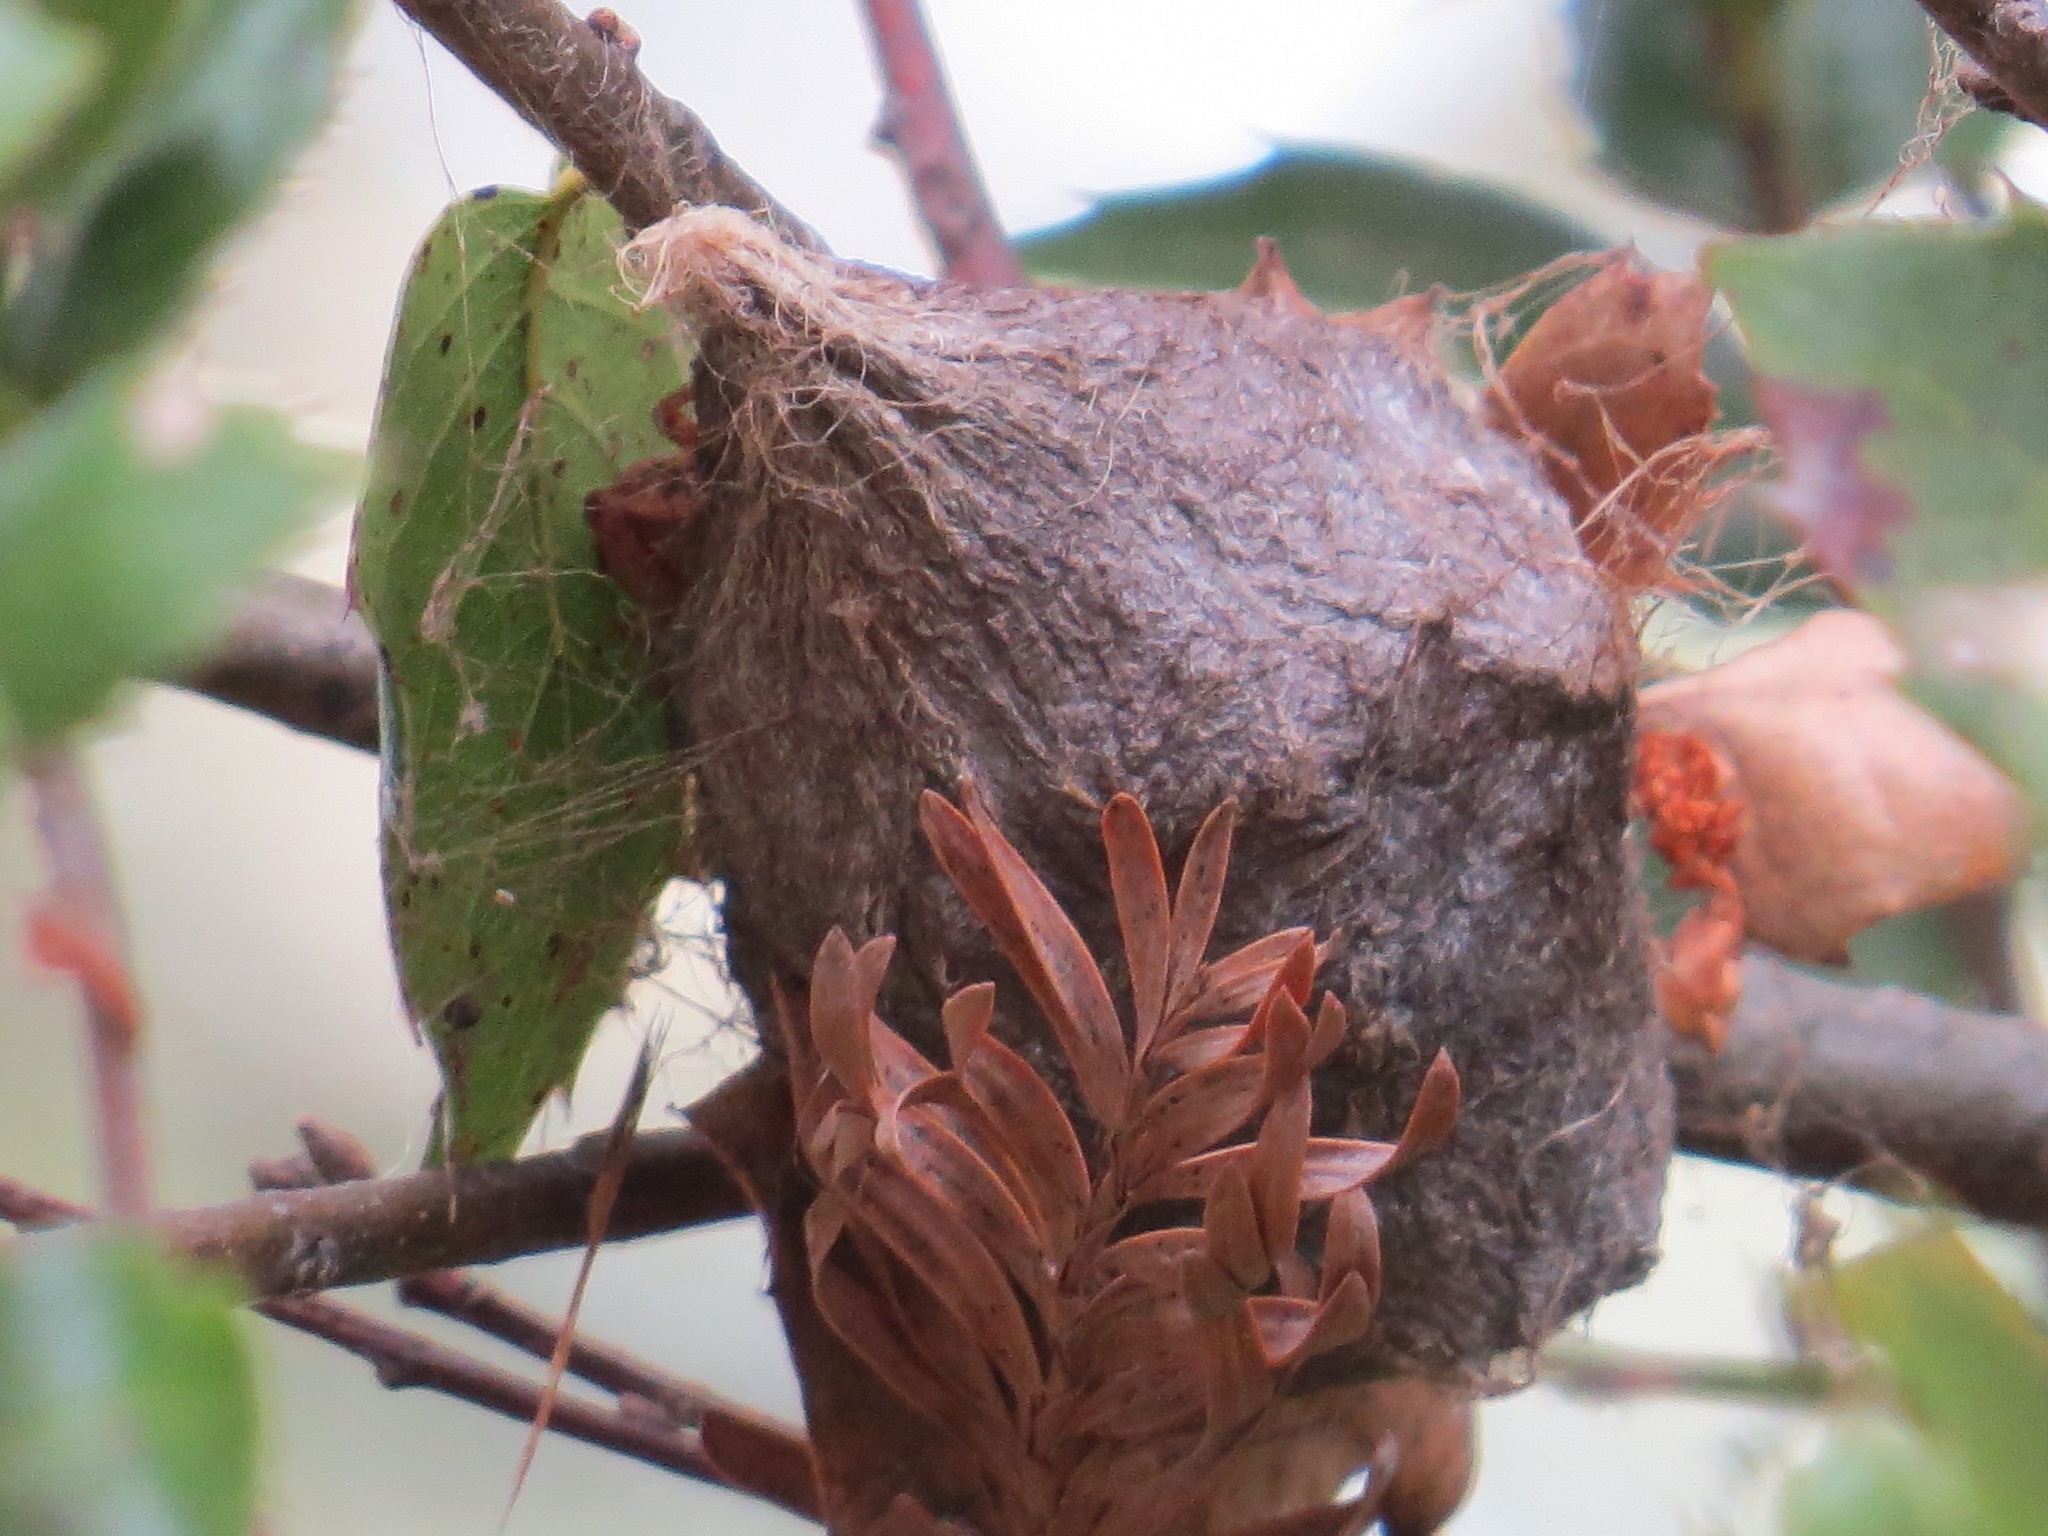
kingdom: Animalia
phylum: Arthropoda
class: Insecta
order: Lepidoptera
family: Saturniidae
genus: Hyalophora
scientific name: Hyalophora euryalus
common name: Ceanothus silkmoth
